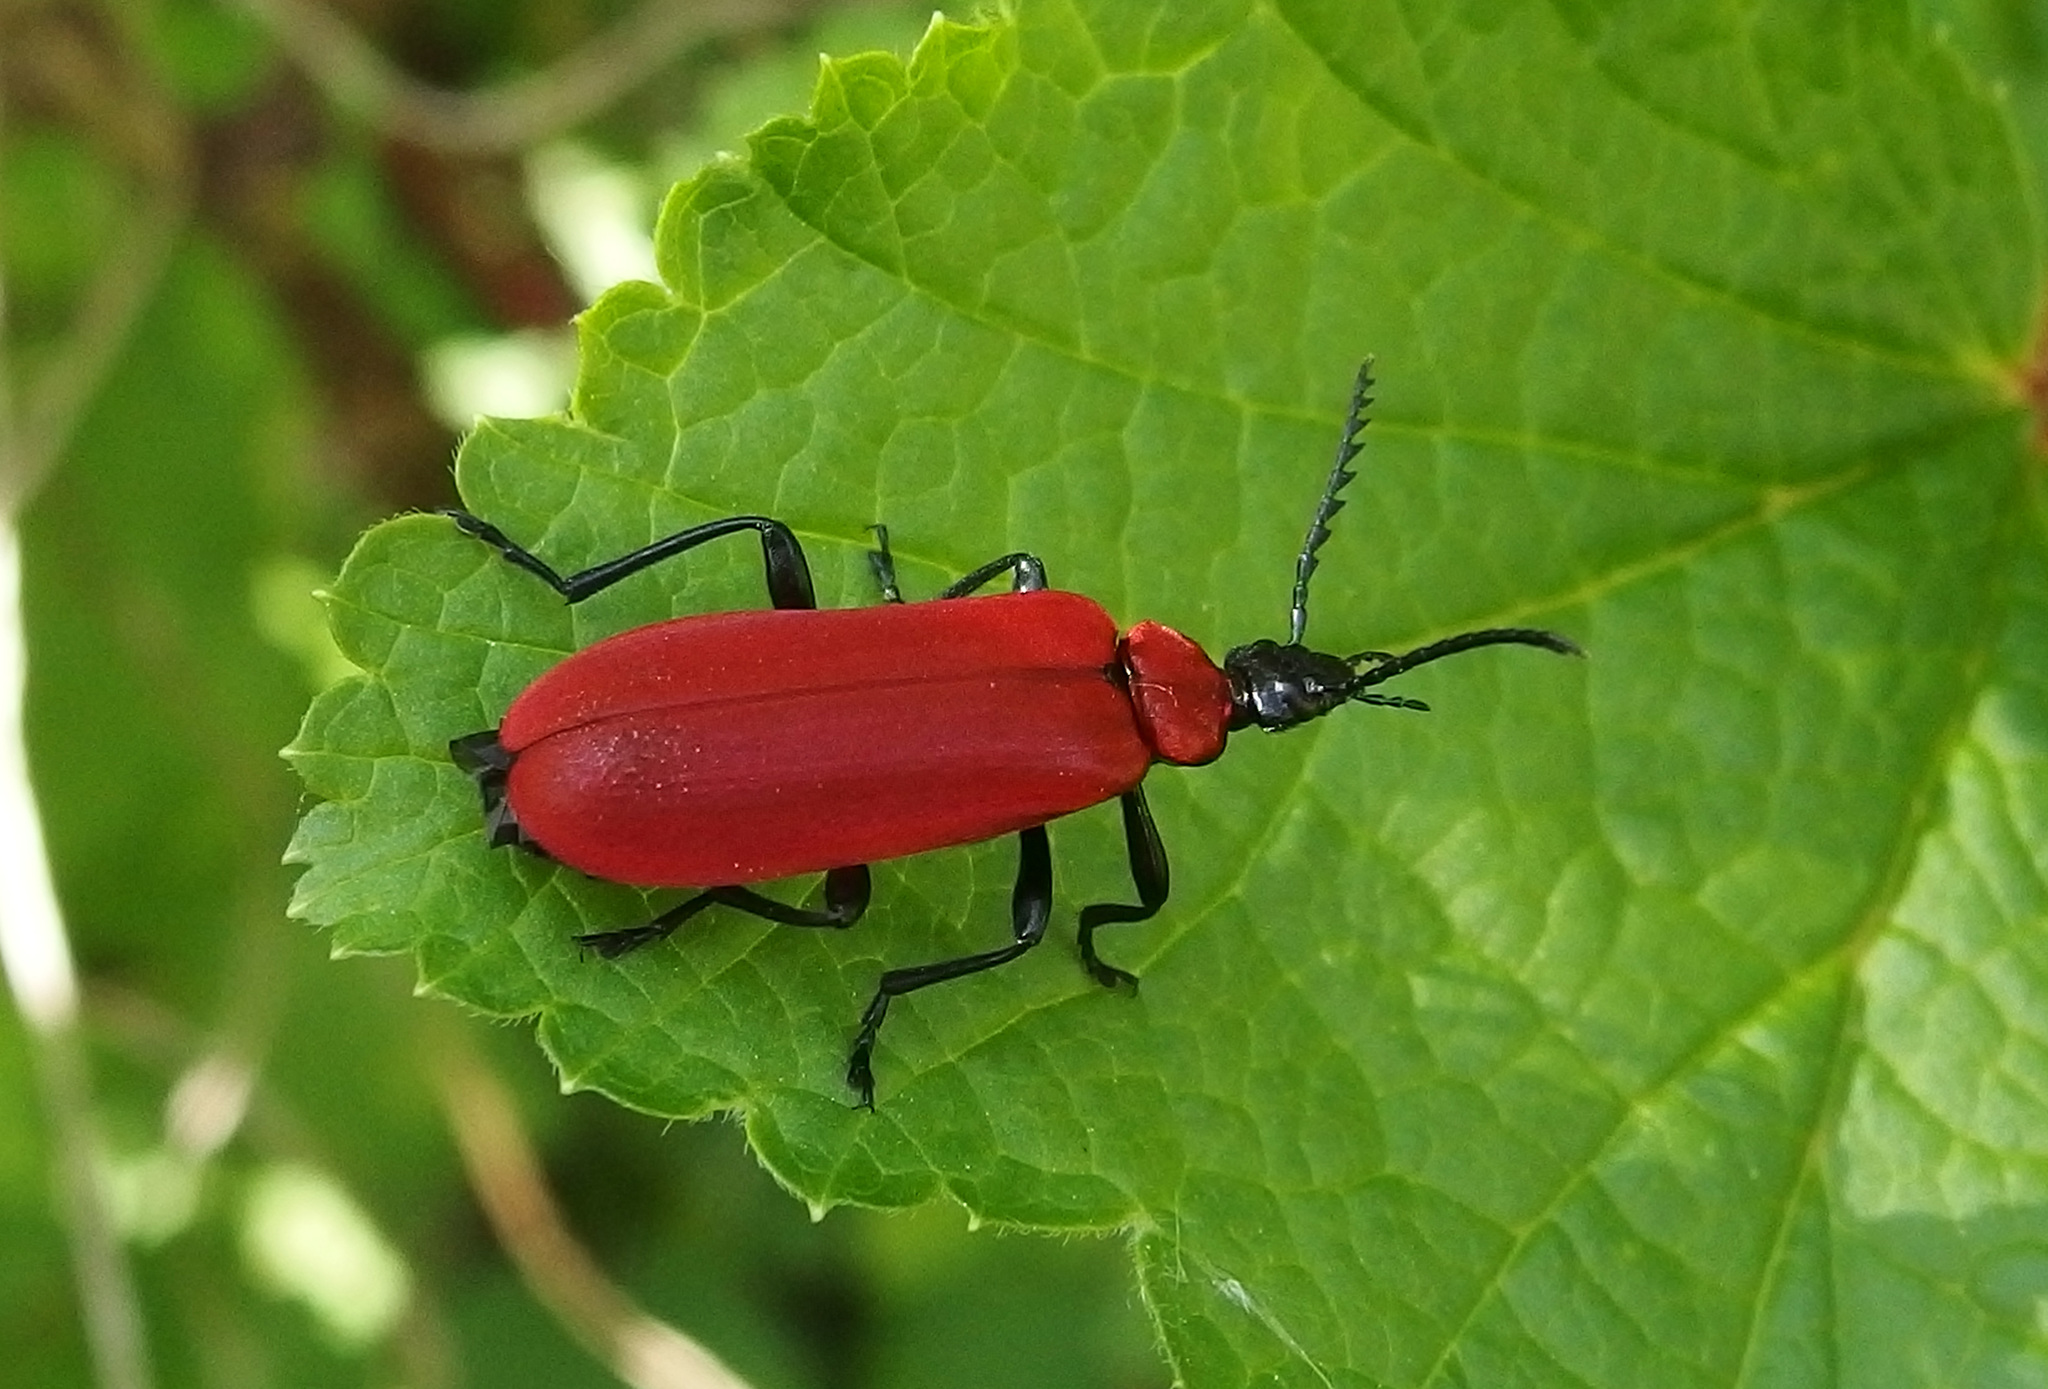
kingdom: Animalia
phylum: Arthropoda
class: Insecta
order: Coleoptera
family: Pyrochroidae
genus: Pyrochroa
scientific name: Pyrochroa coccinea
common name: Black-headed cardinal beetle
